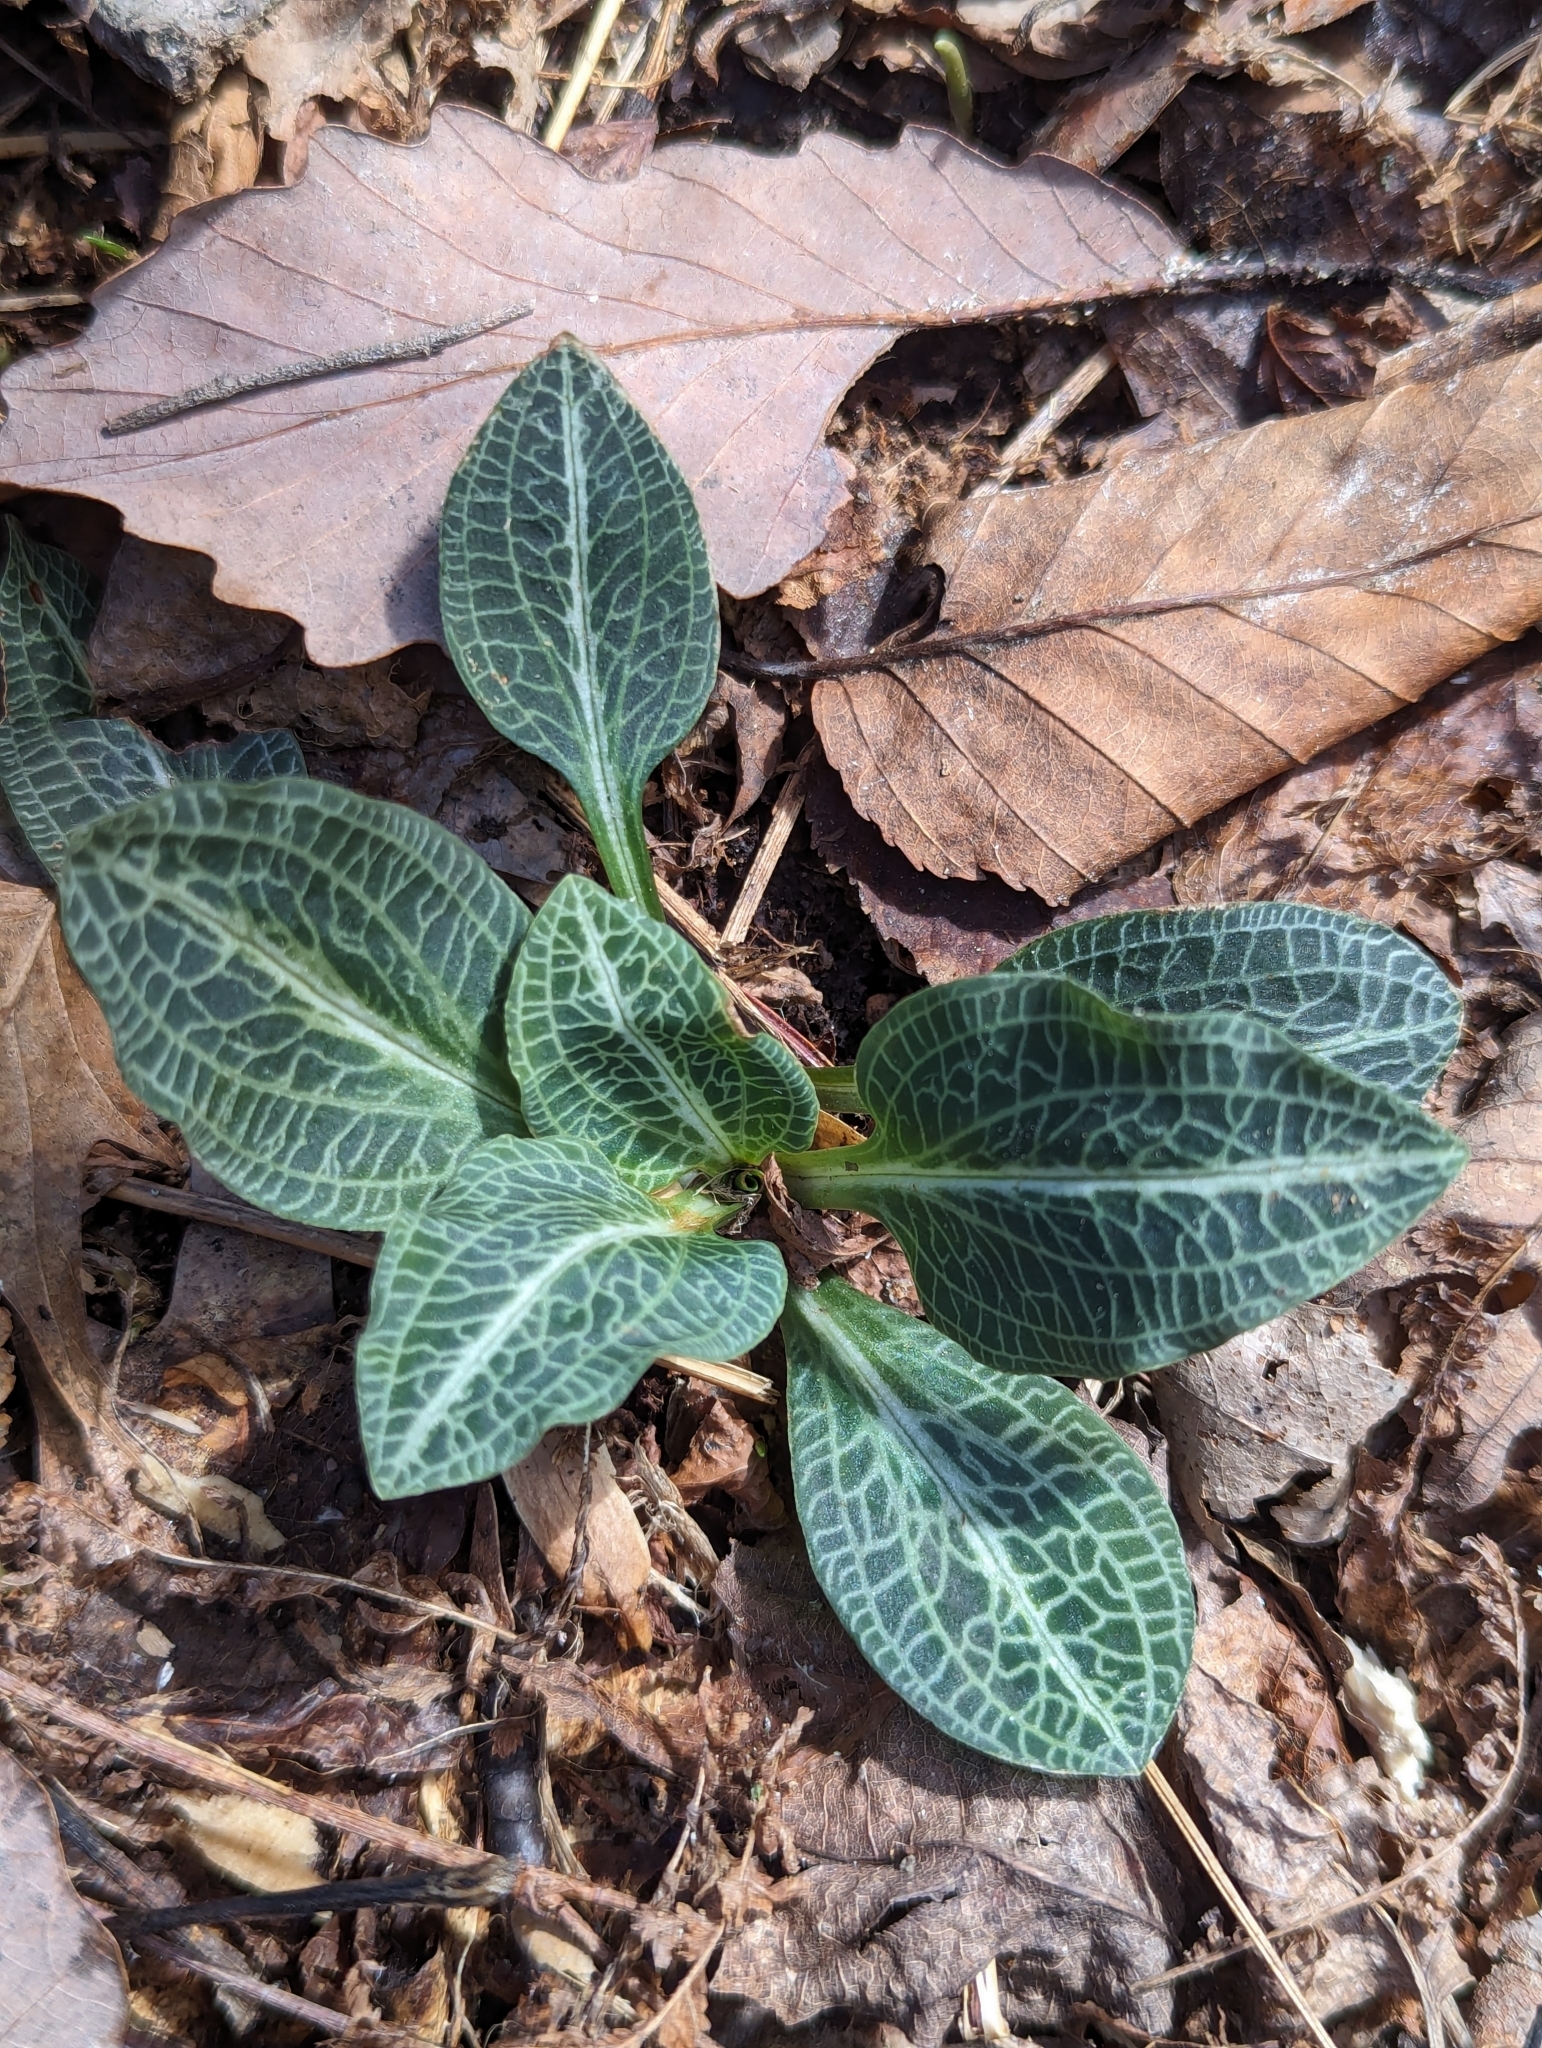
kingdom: Plantae
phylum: Tracheophyta
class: Liliopsida
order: Asparagales
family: Orchidaceae
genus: Goodyera
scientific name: Goodyera pubescens
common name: Downy rattlesnake-plantain
